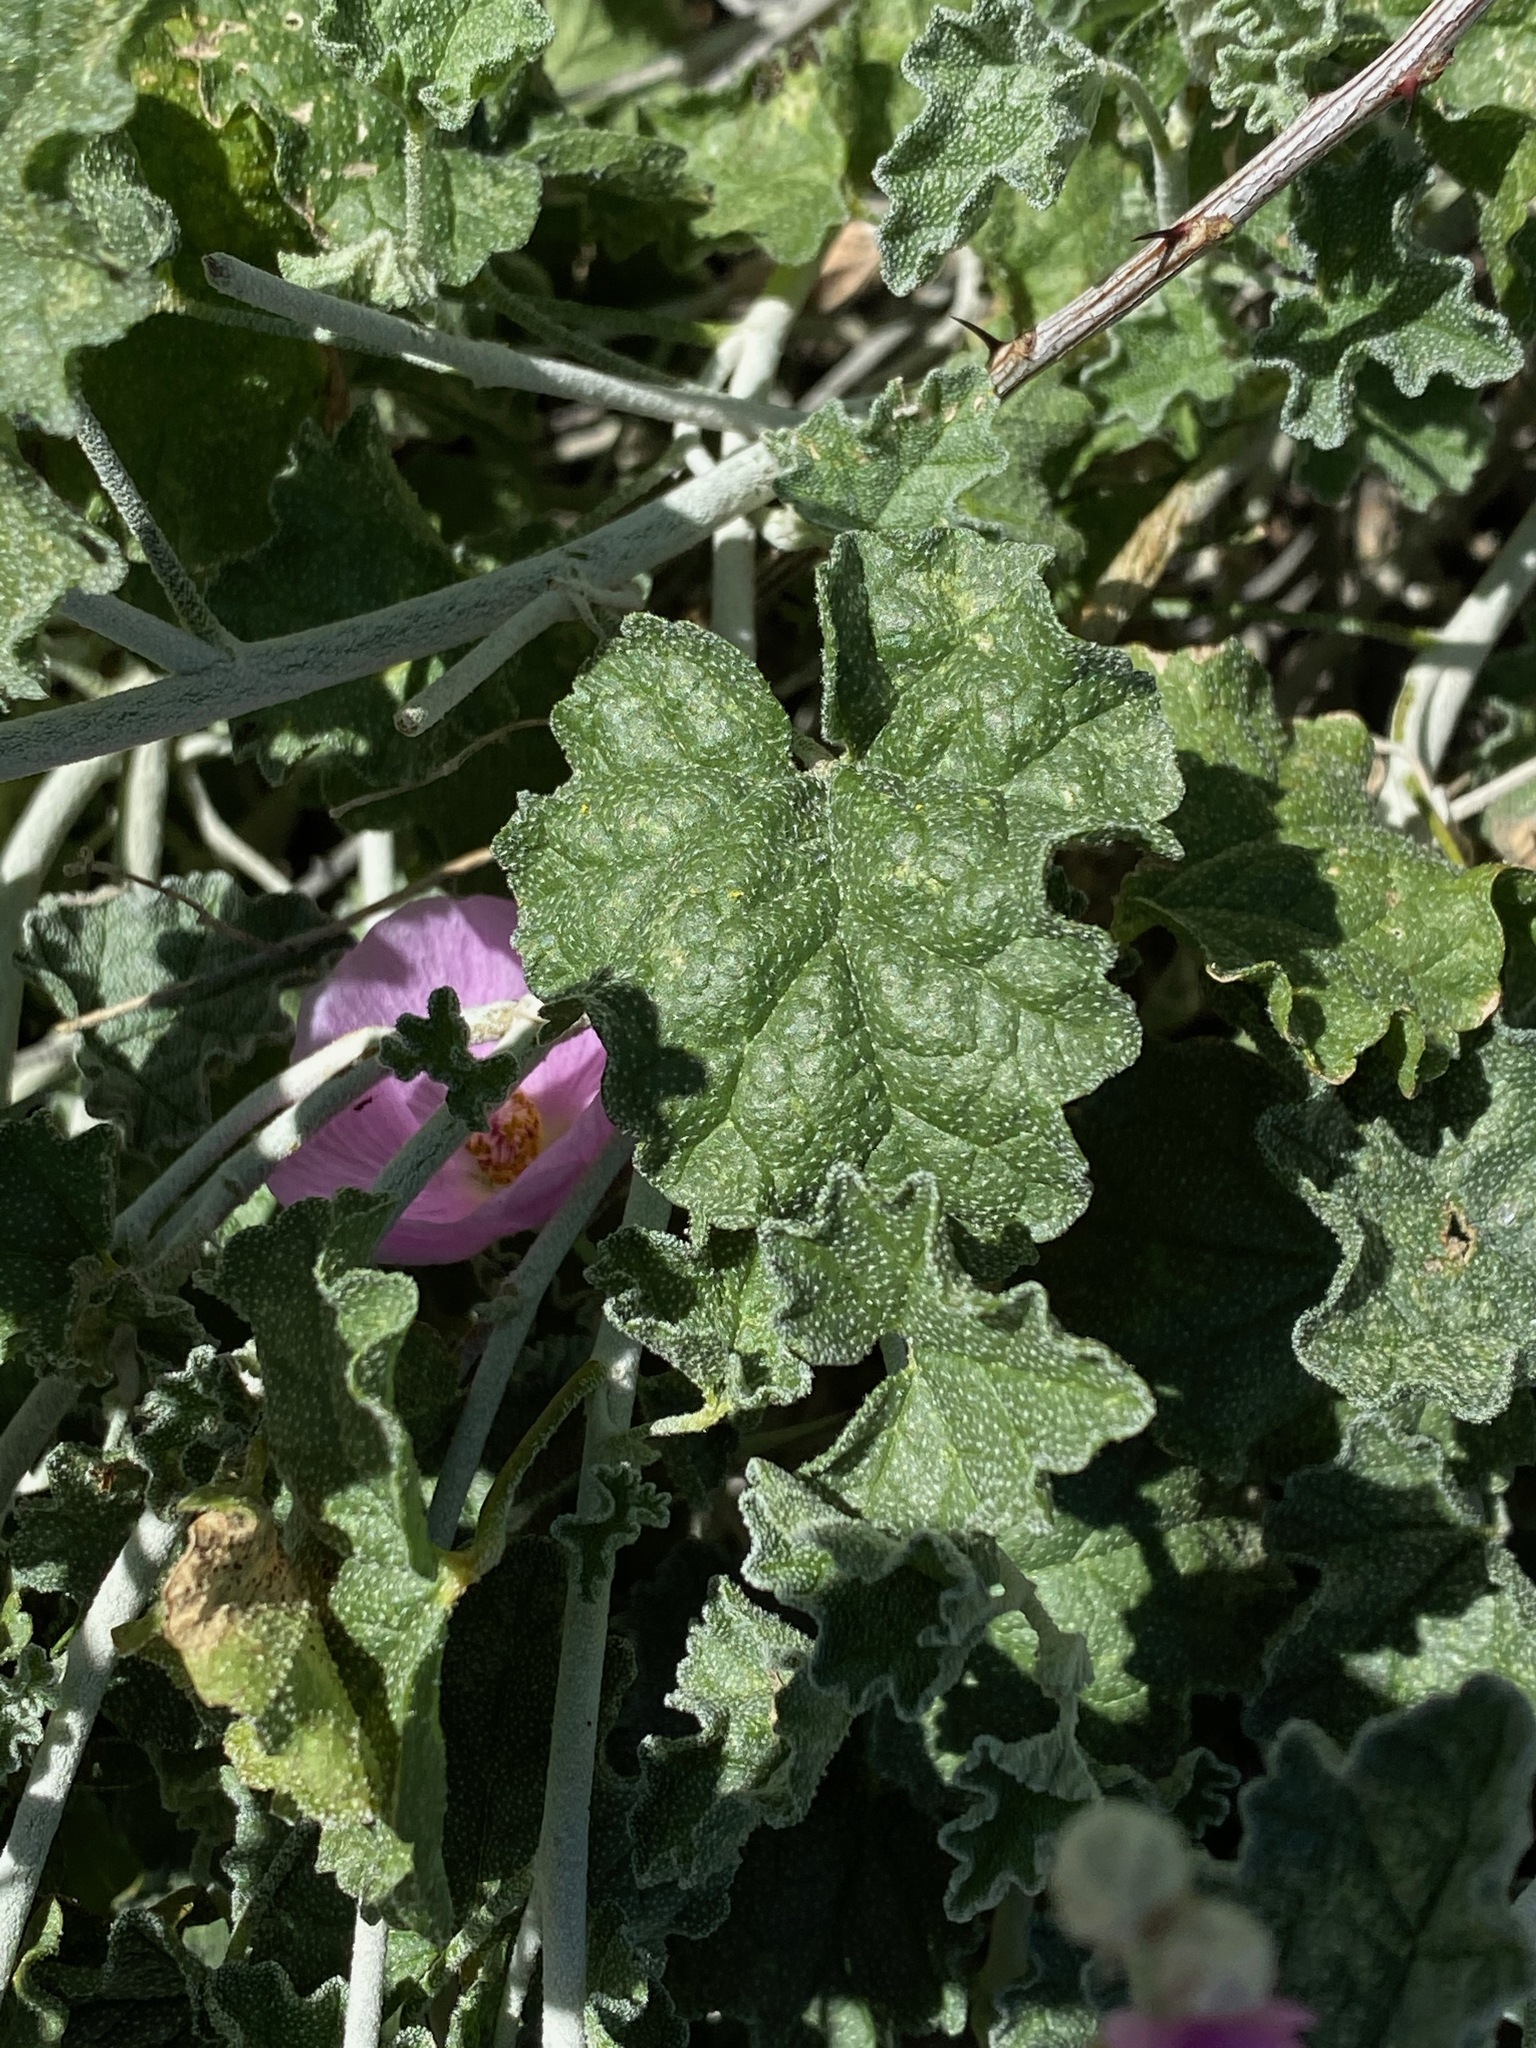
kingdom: Plantae
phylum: Tracheophyta
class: Magnoliopsida
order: Malvales
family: Malvaceae
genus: Sphaeralcea
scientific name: Sphaeralcea ambigua
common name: Apricot globe-mallow
